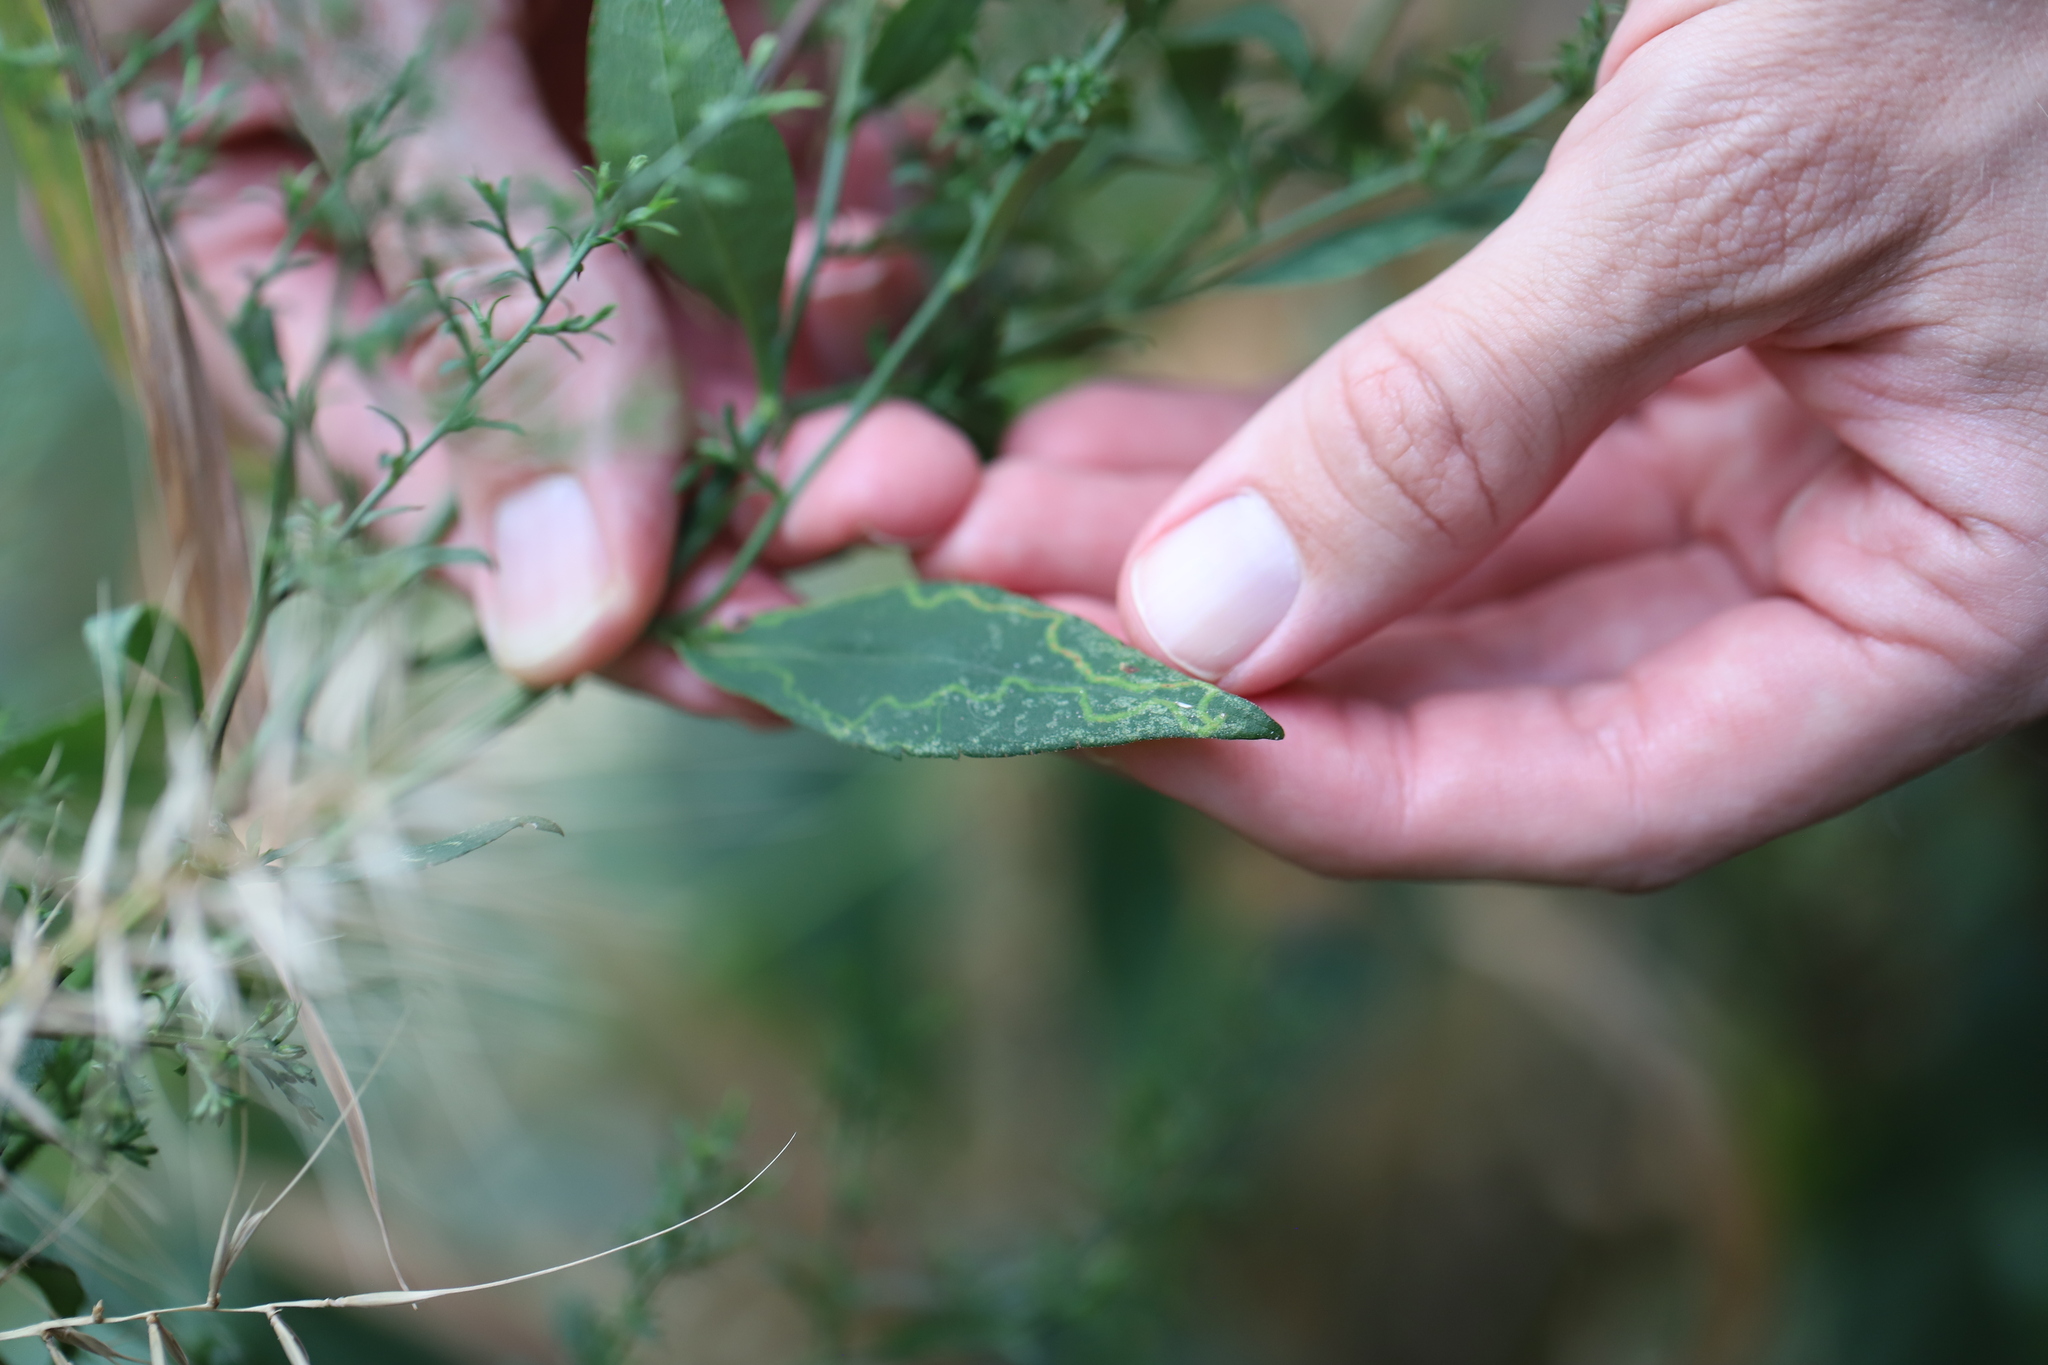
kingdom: Animalia
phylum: Arthropoda
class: Insecta
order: Diptera
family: Agromyzidae
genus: Ophiomyia
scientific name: Ophiomyia parda
